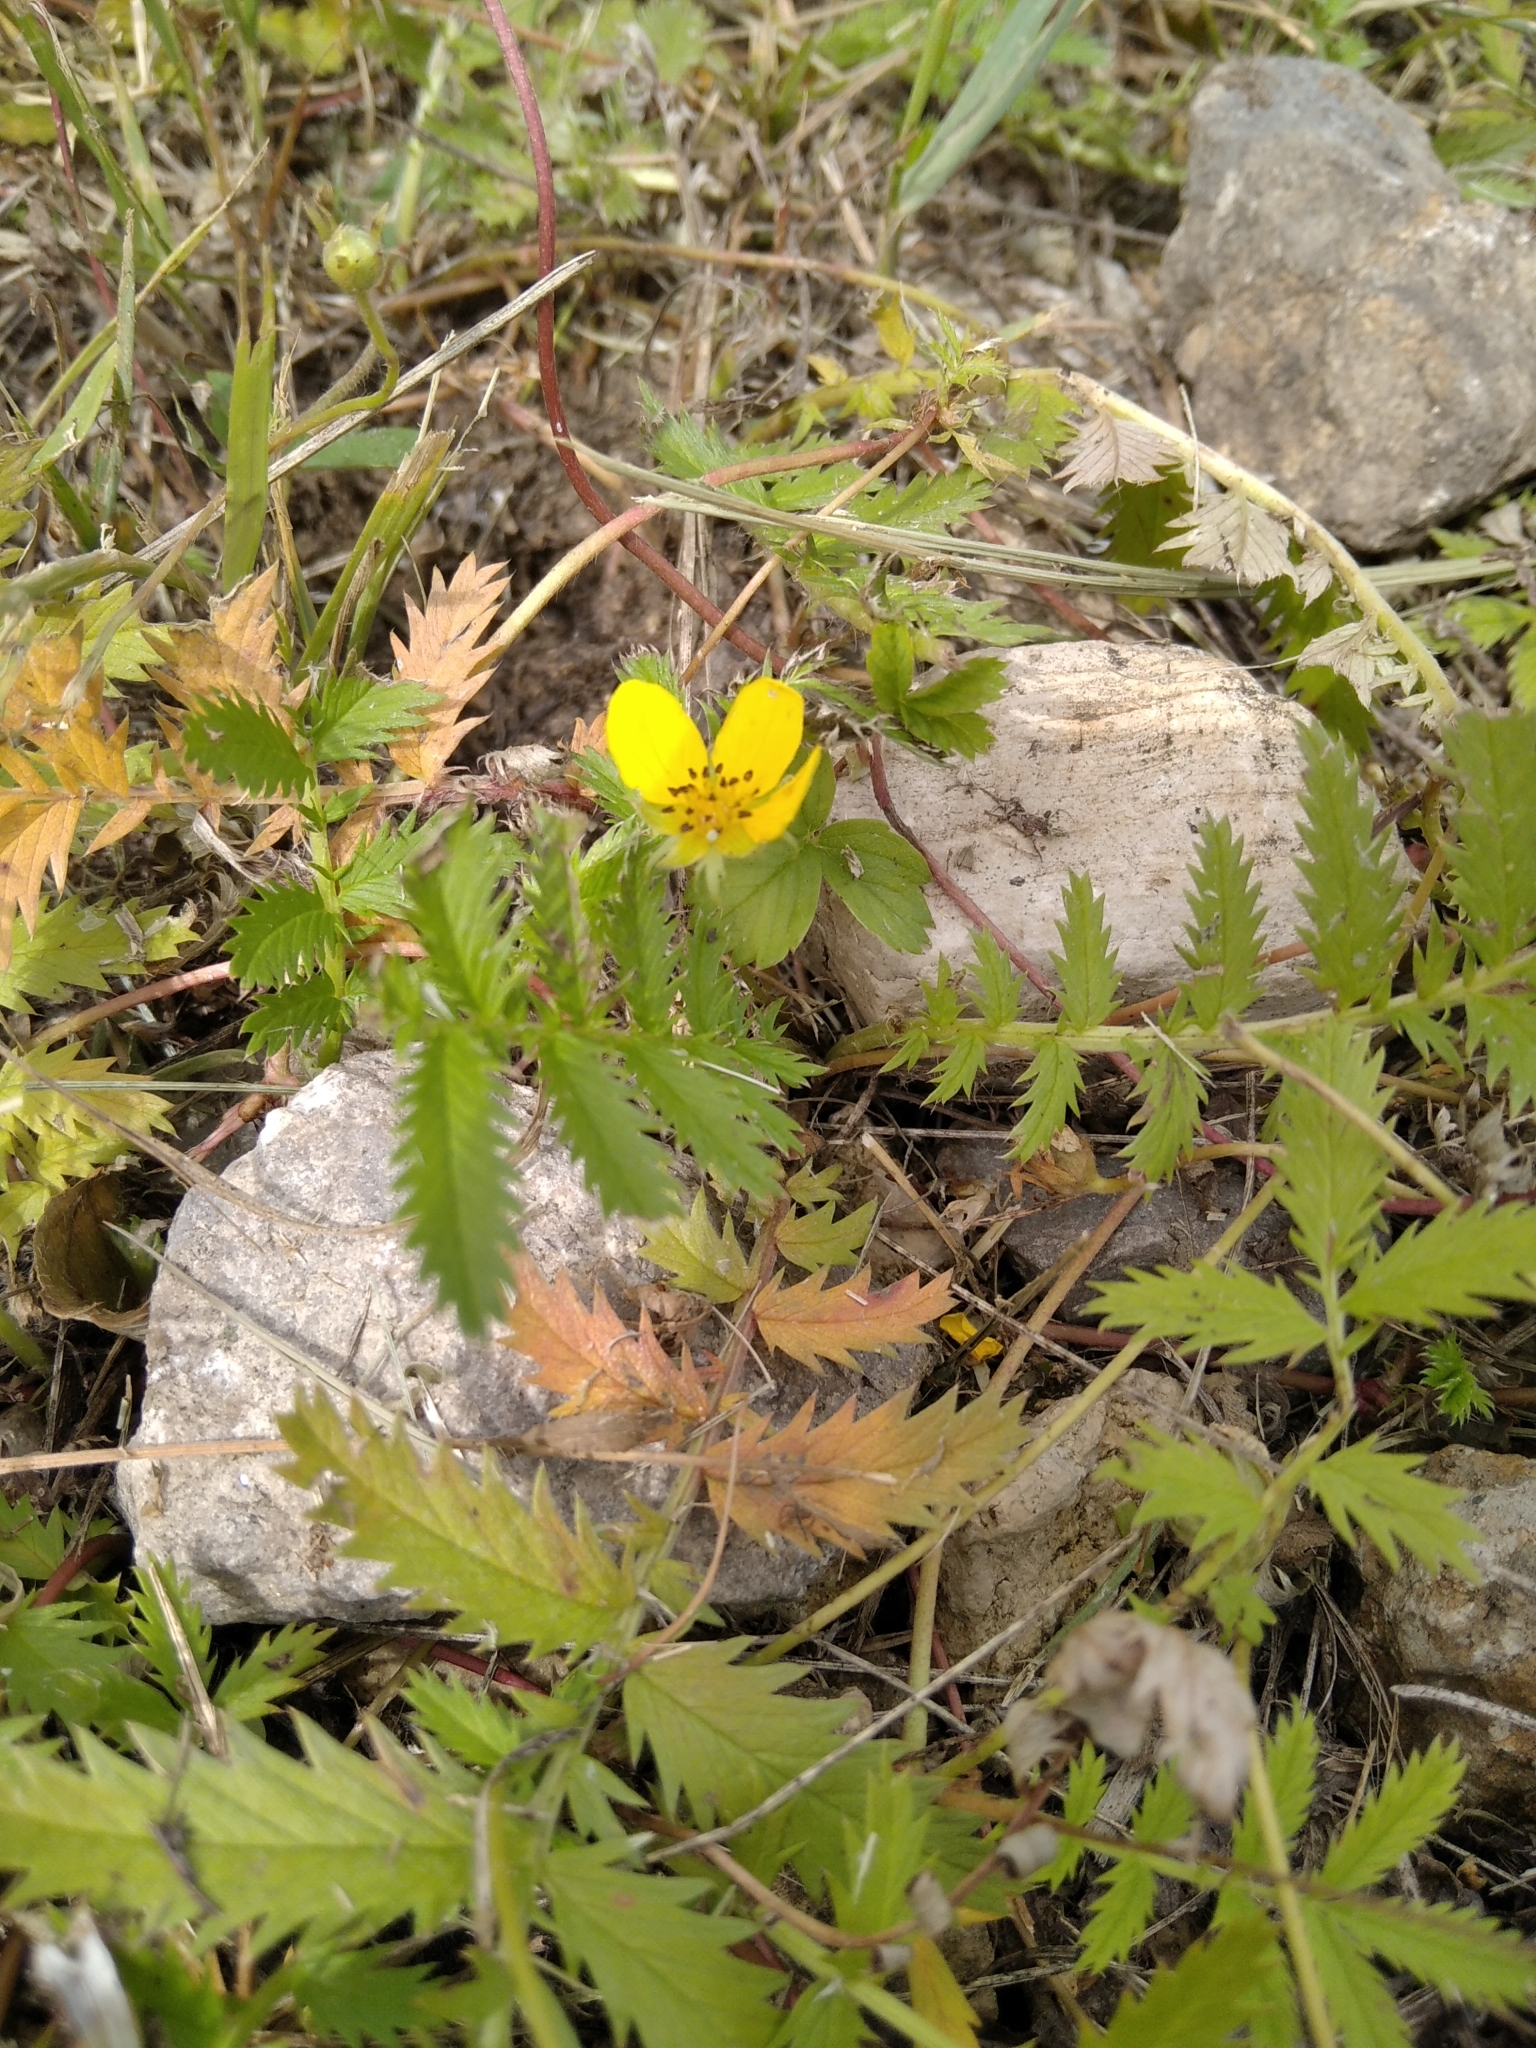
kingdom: Plantae
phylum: Tracheophyta
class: Magnoliopsida
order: Rosales
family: Rosaceae
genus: Argentina
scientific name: Argentina anserina
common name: Common silverweed
